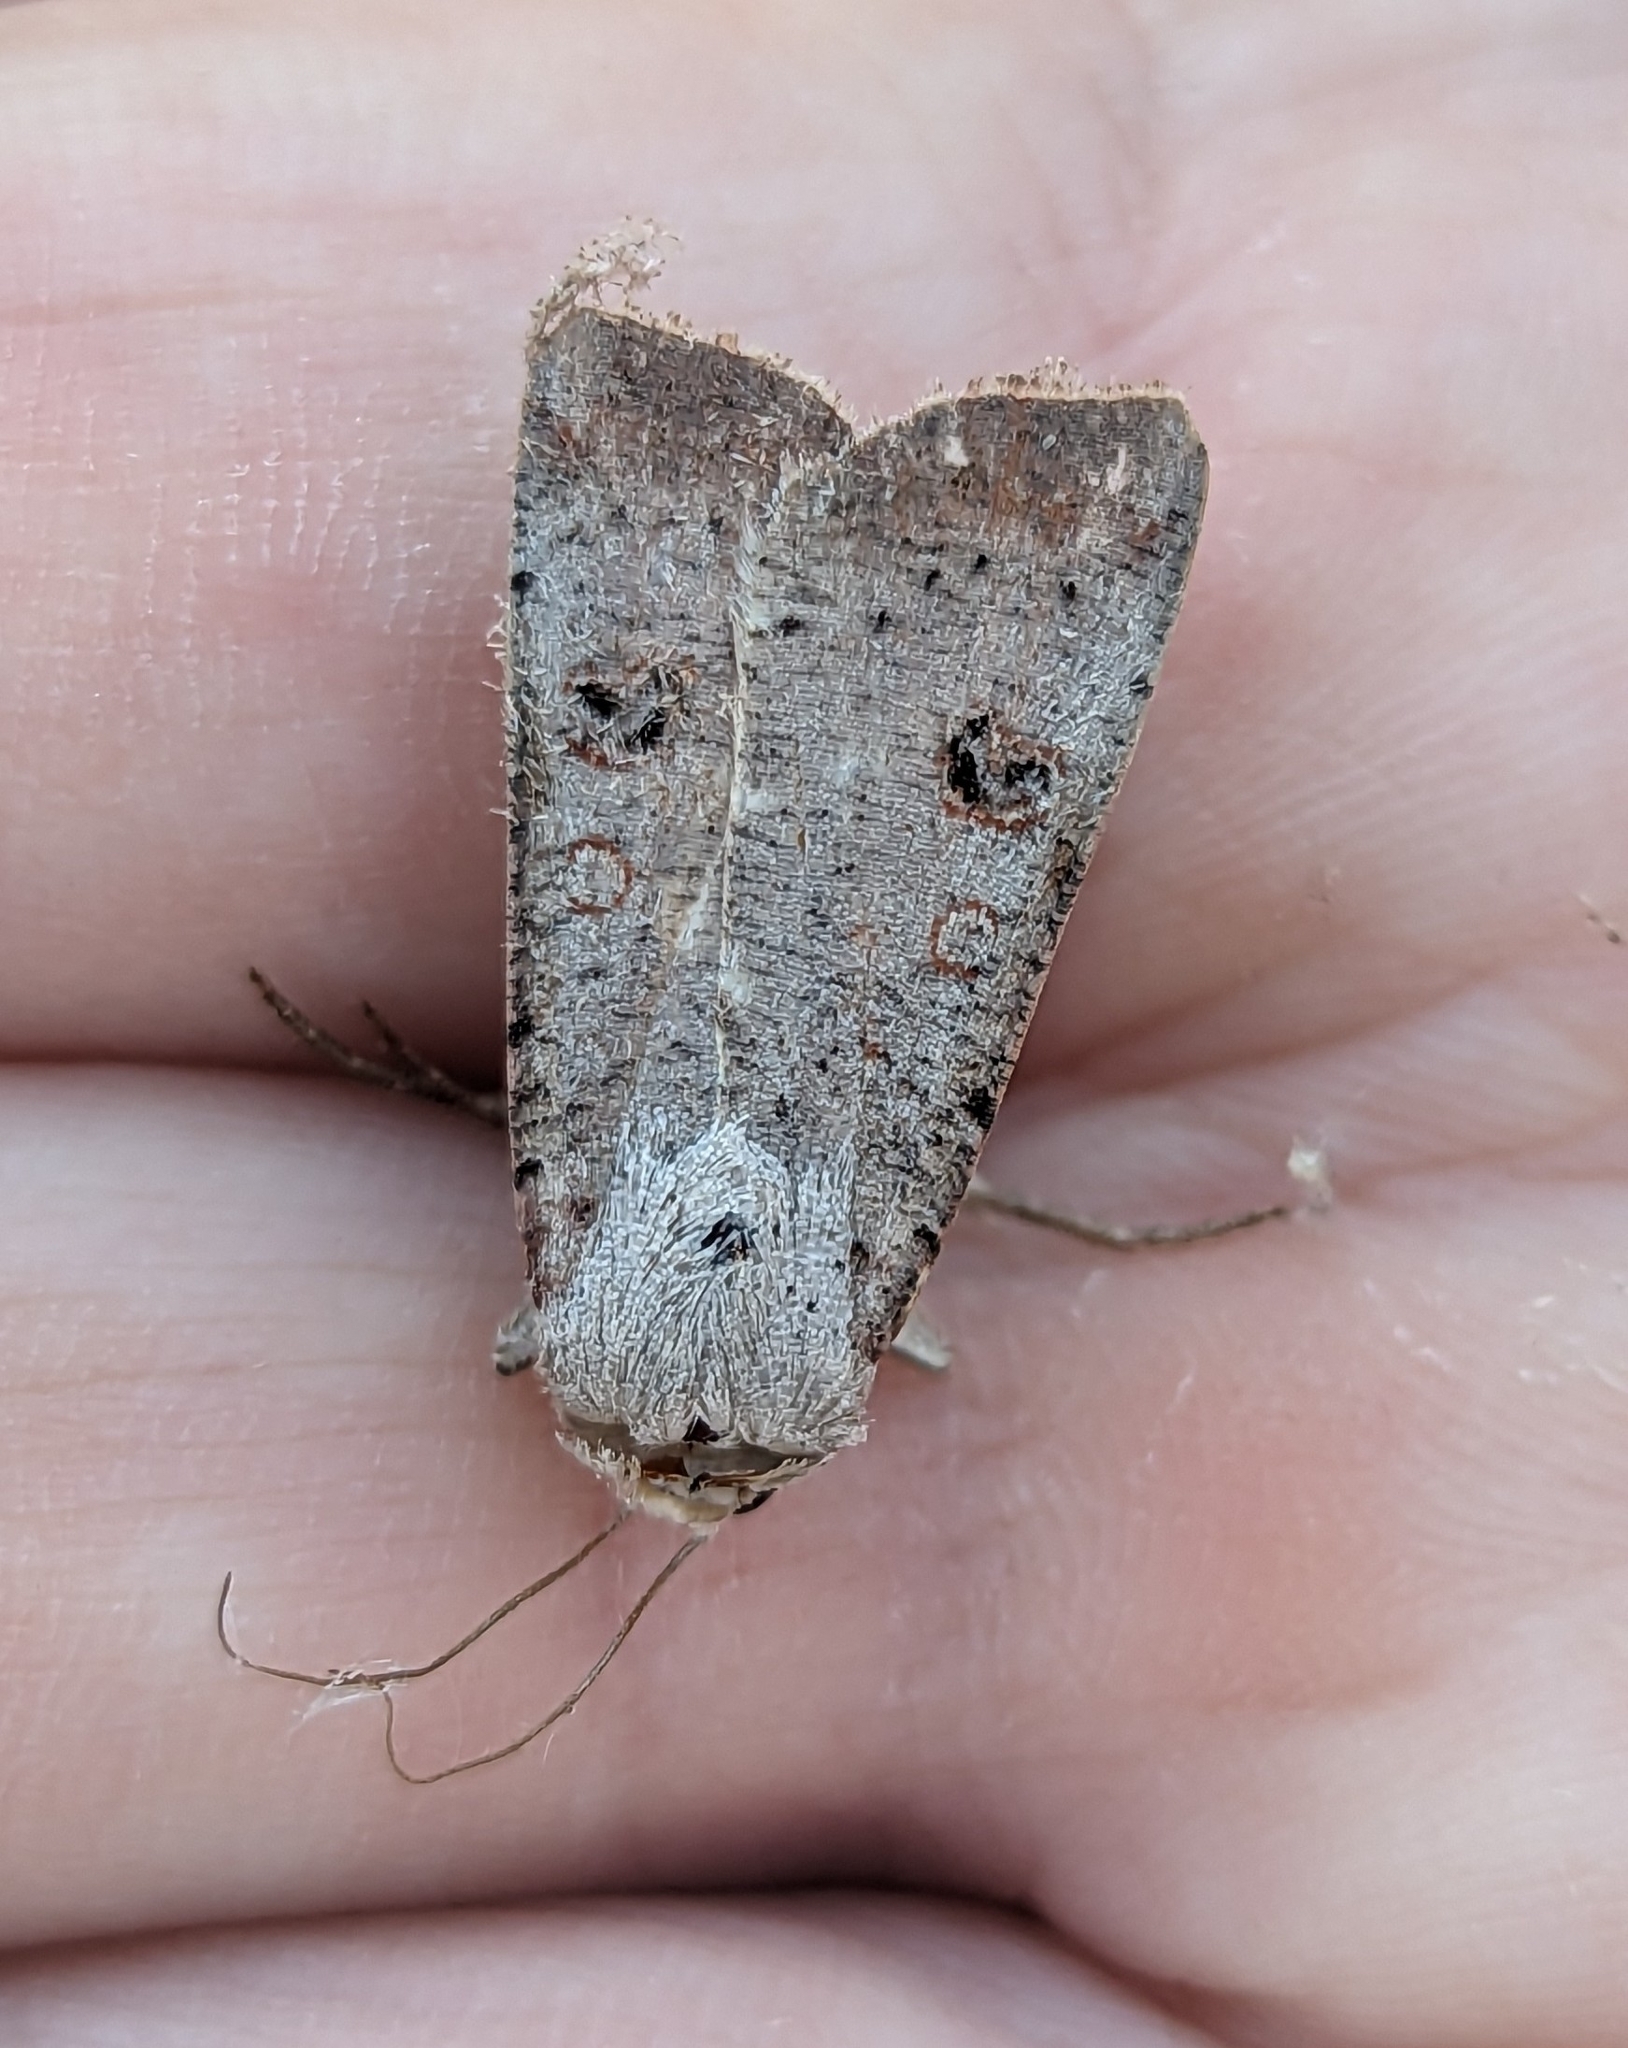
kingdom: Animalia
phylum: Arthropoda
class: Insecta
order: Lepidoptera
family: Noctuidae
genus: Anicla
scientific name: Anicla infecta
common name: Green cutworm
